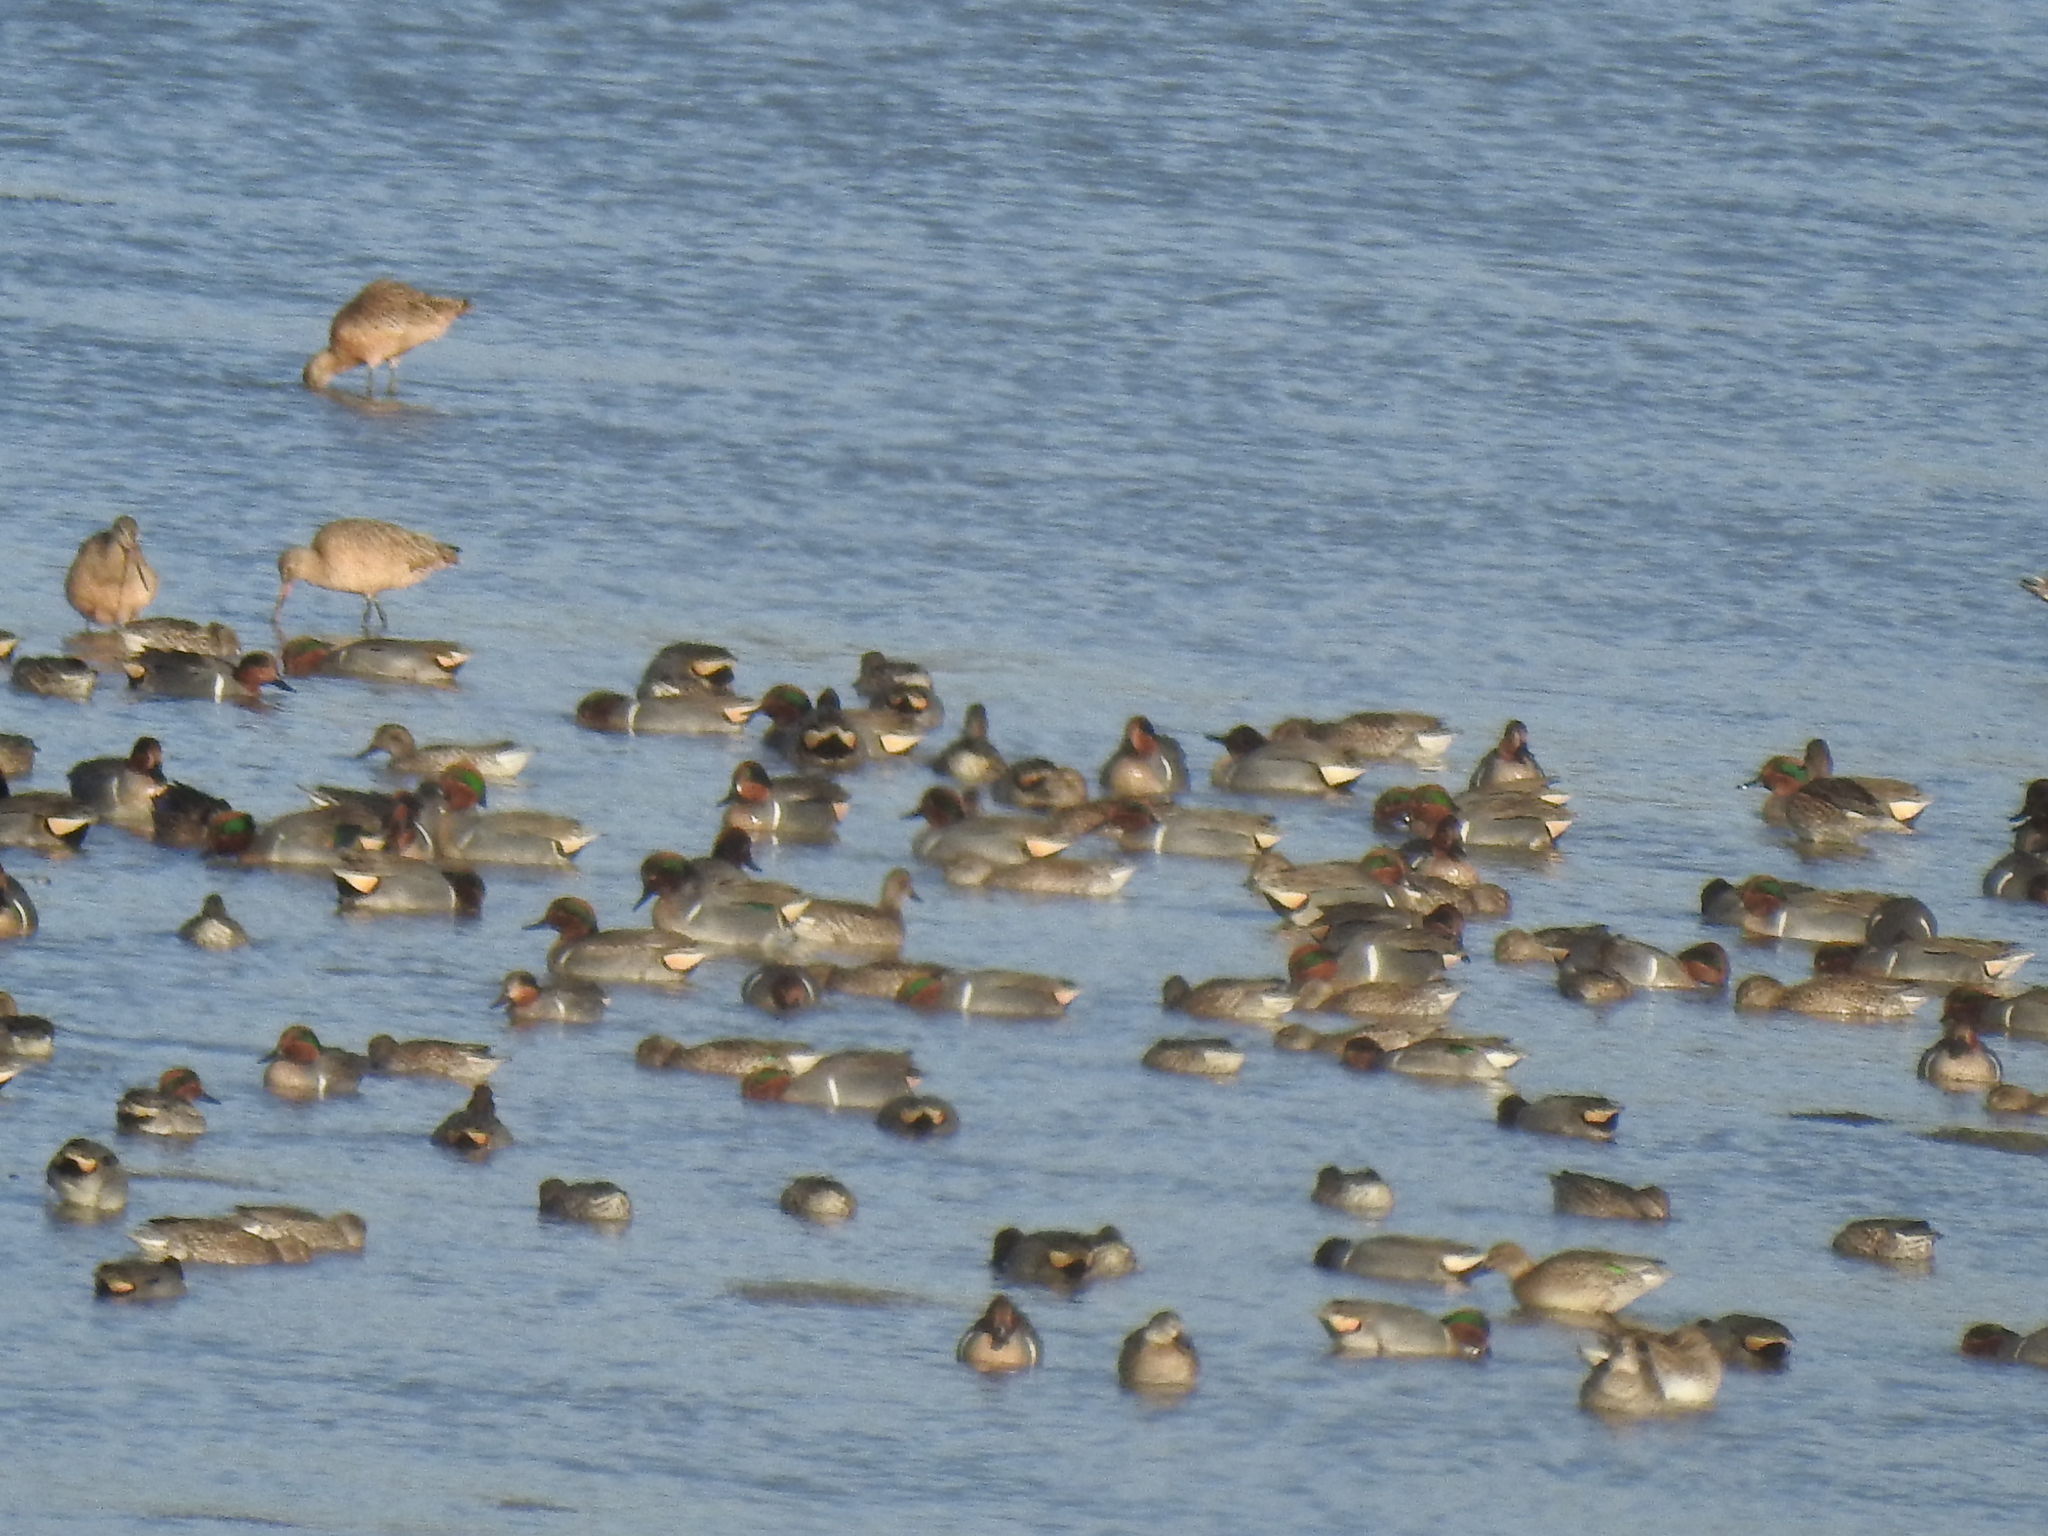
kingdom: Animalia
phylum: Chordata
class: Aves
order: Anseriformes
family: Anatidae
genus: Anas
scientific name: Anas crecca
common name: Eurasian teal
